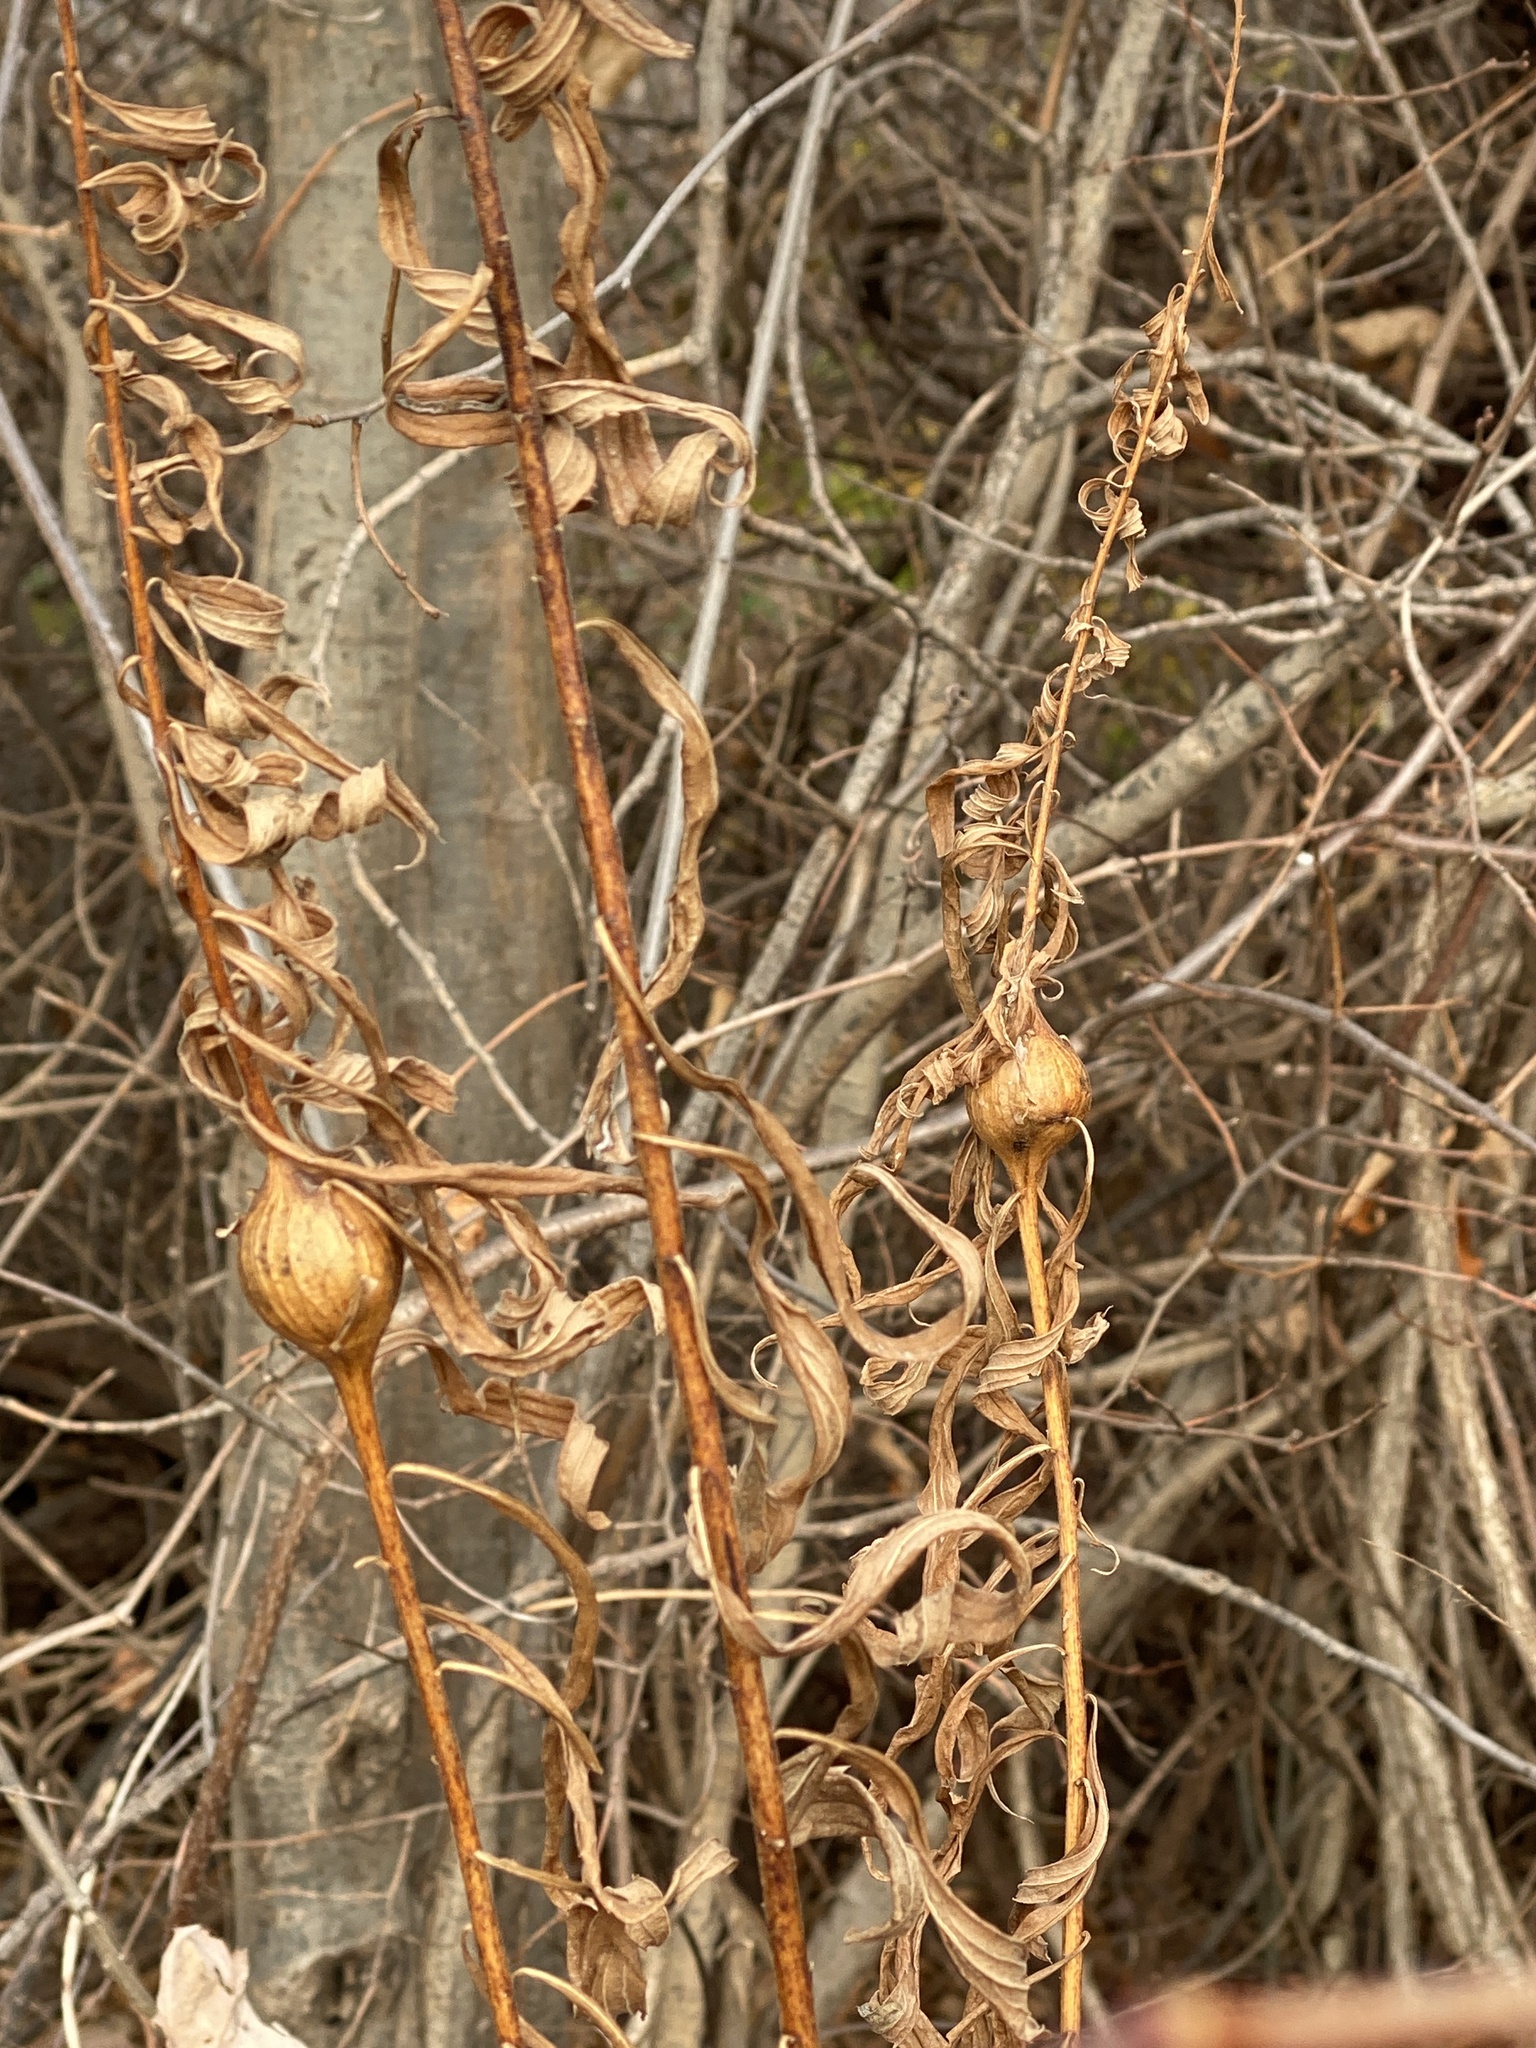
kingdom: Animalia
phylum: Arthropoda
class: Insecta
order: Diptera
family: Tephritidae
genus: Eurosta
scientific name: Eurosta solidaginis
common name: Goldenrod gall fly
